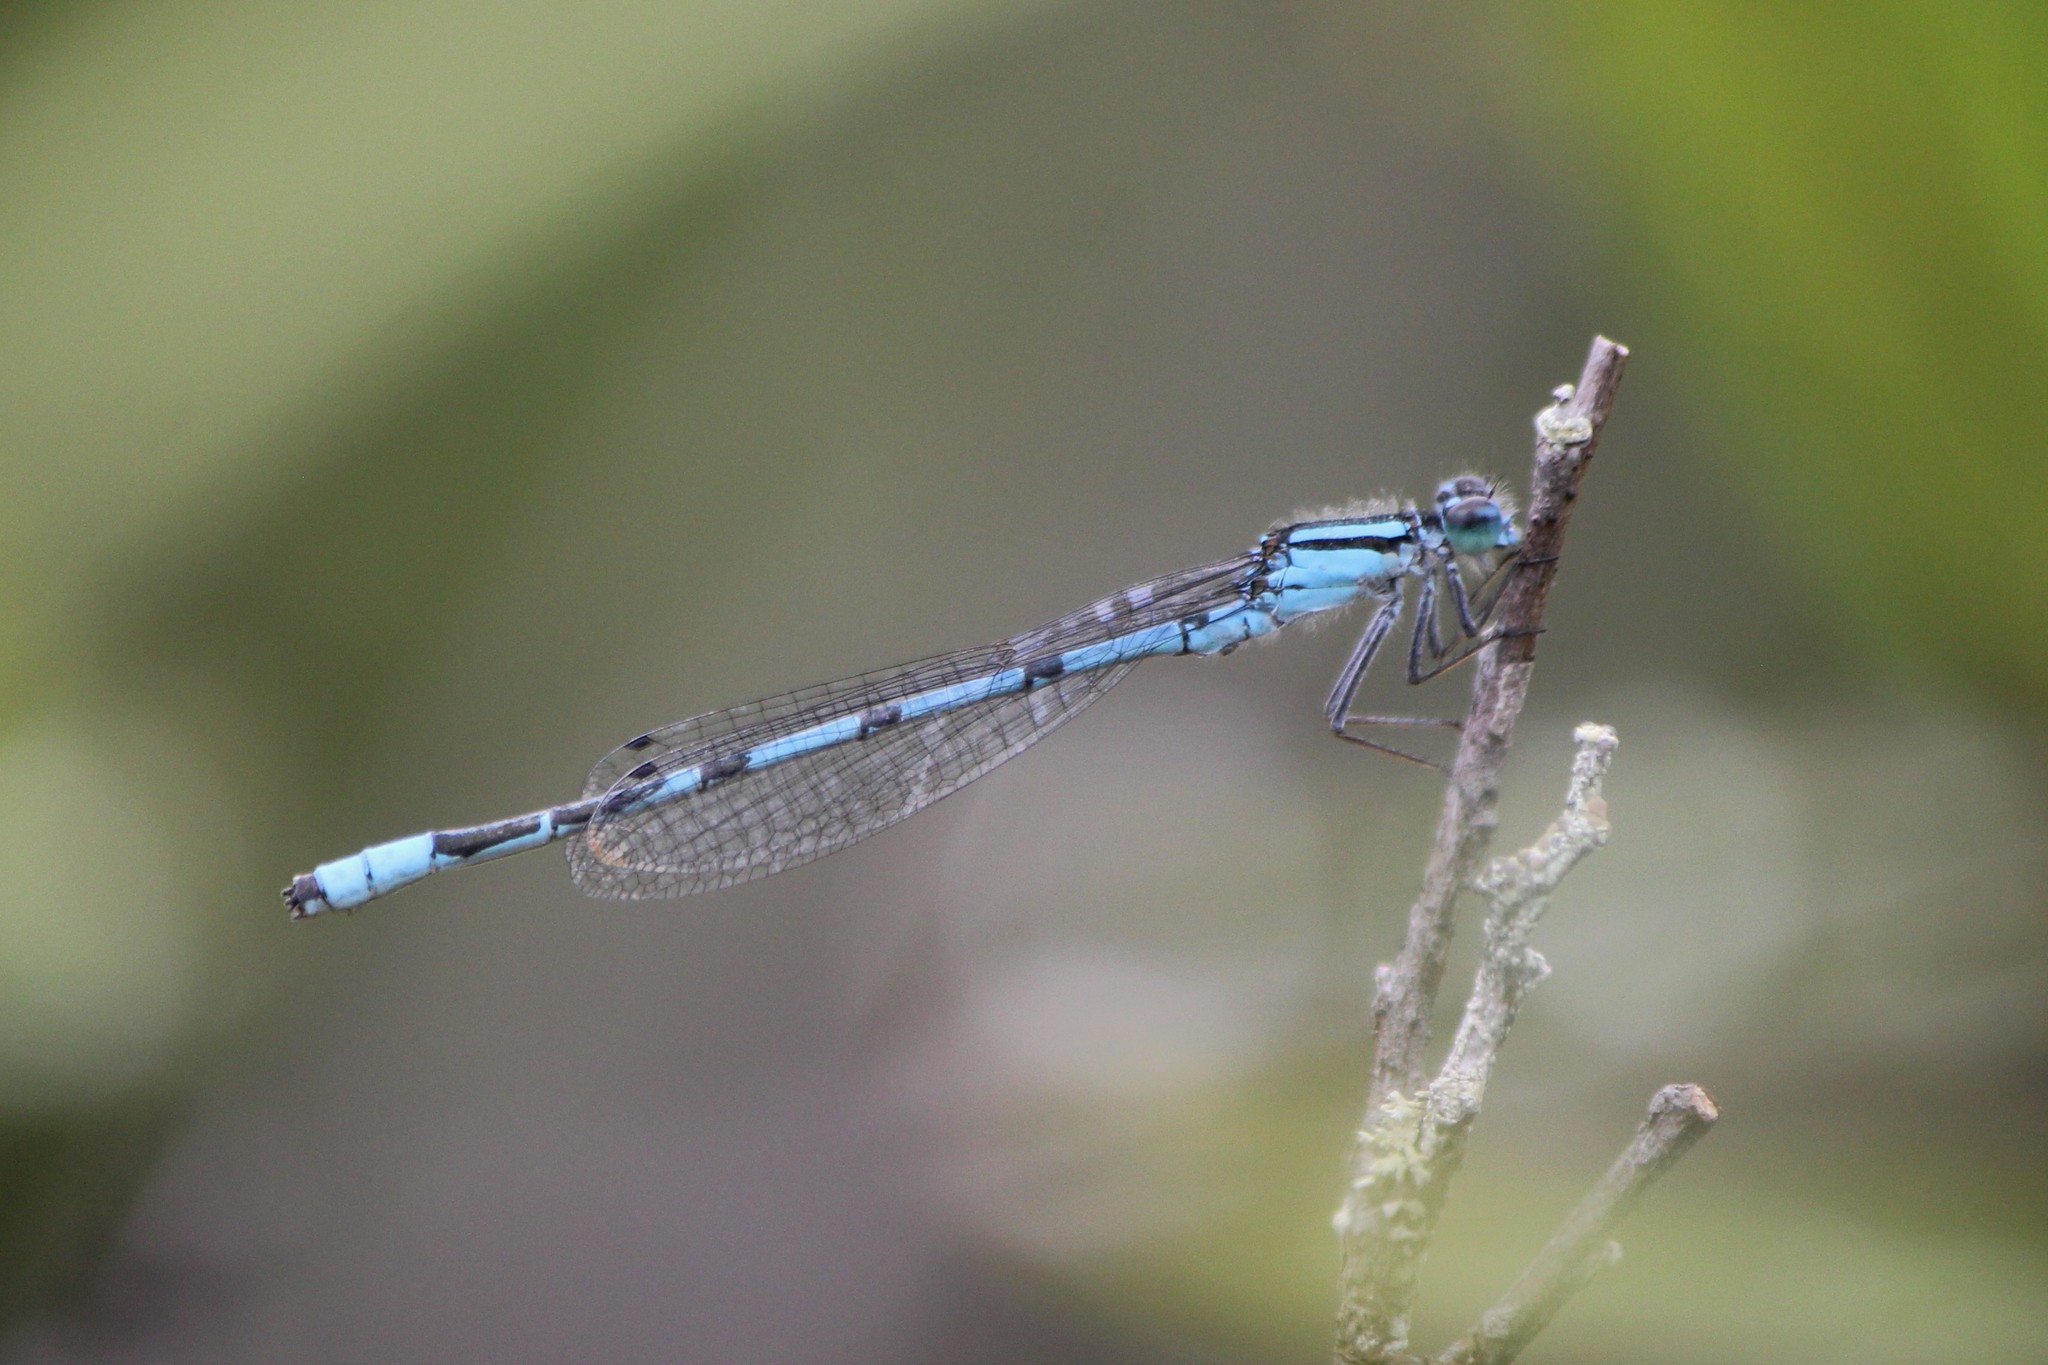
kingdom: Animalia
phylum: Arthropoda
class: Insecta
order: Odonata
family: Coenagrionidae
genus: Enallagma
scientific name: Enallagma ebrium
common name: Marsh bluet
